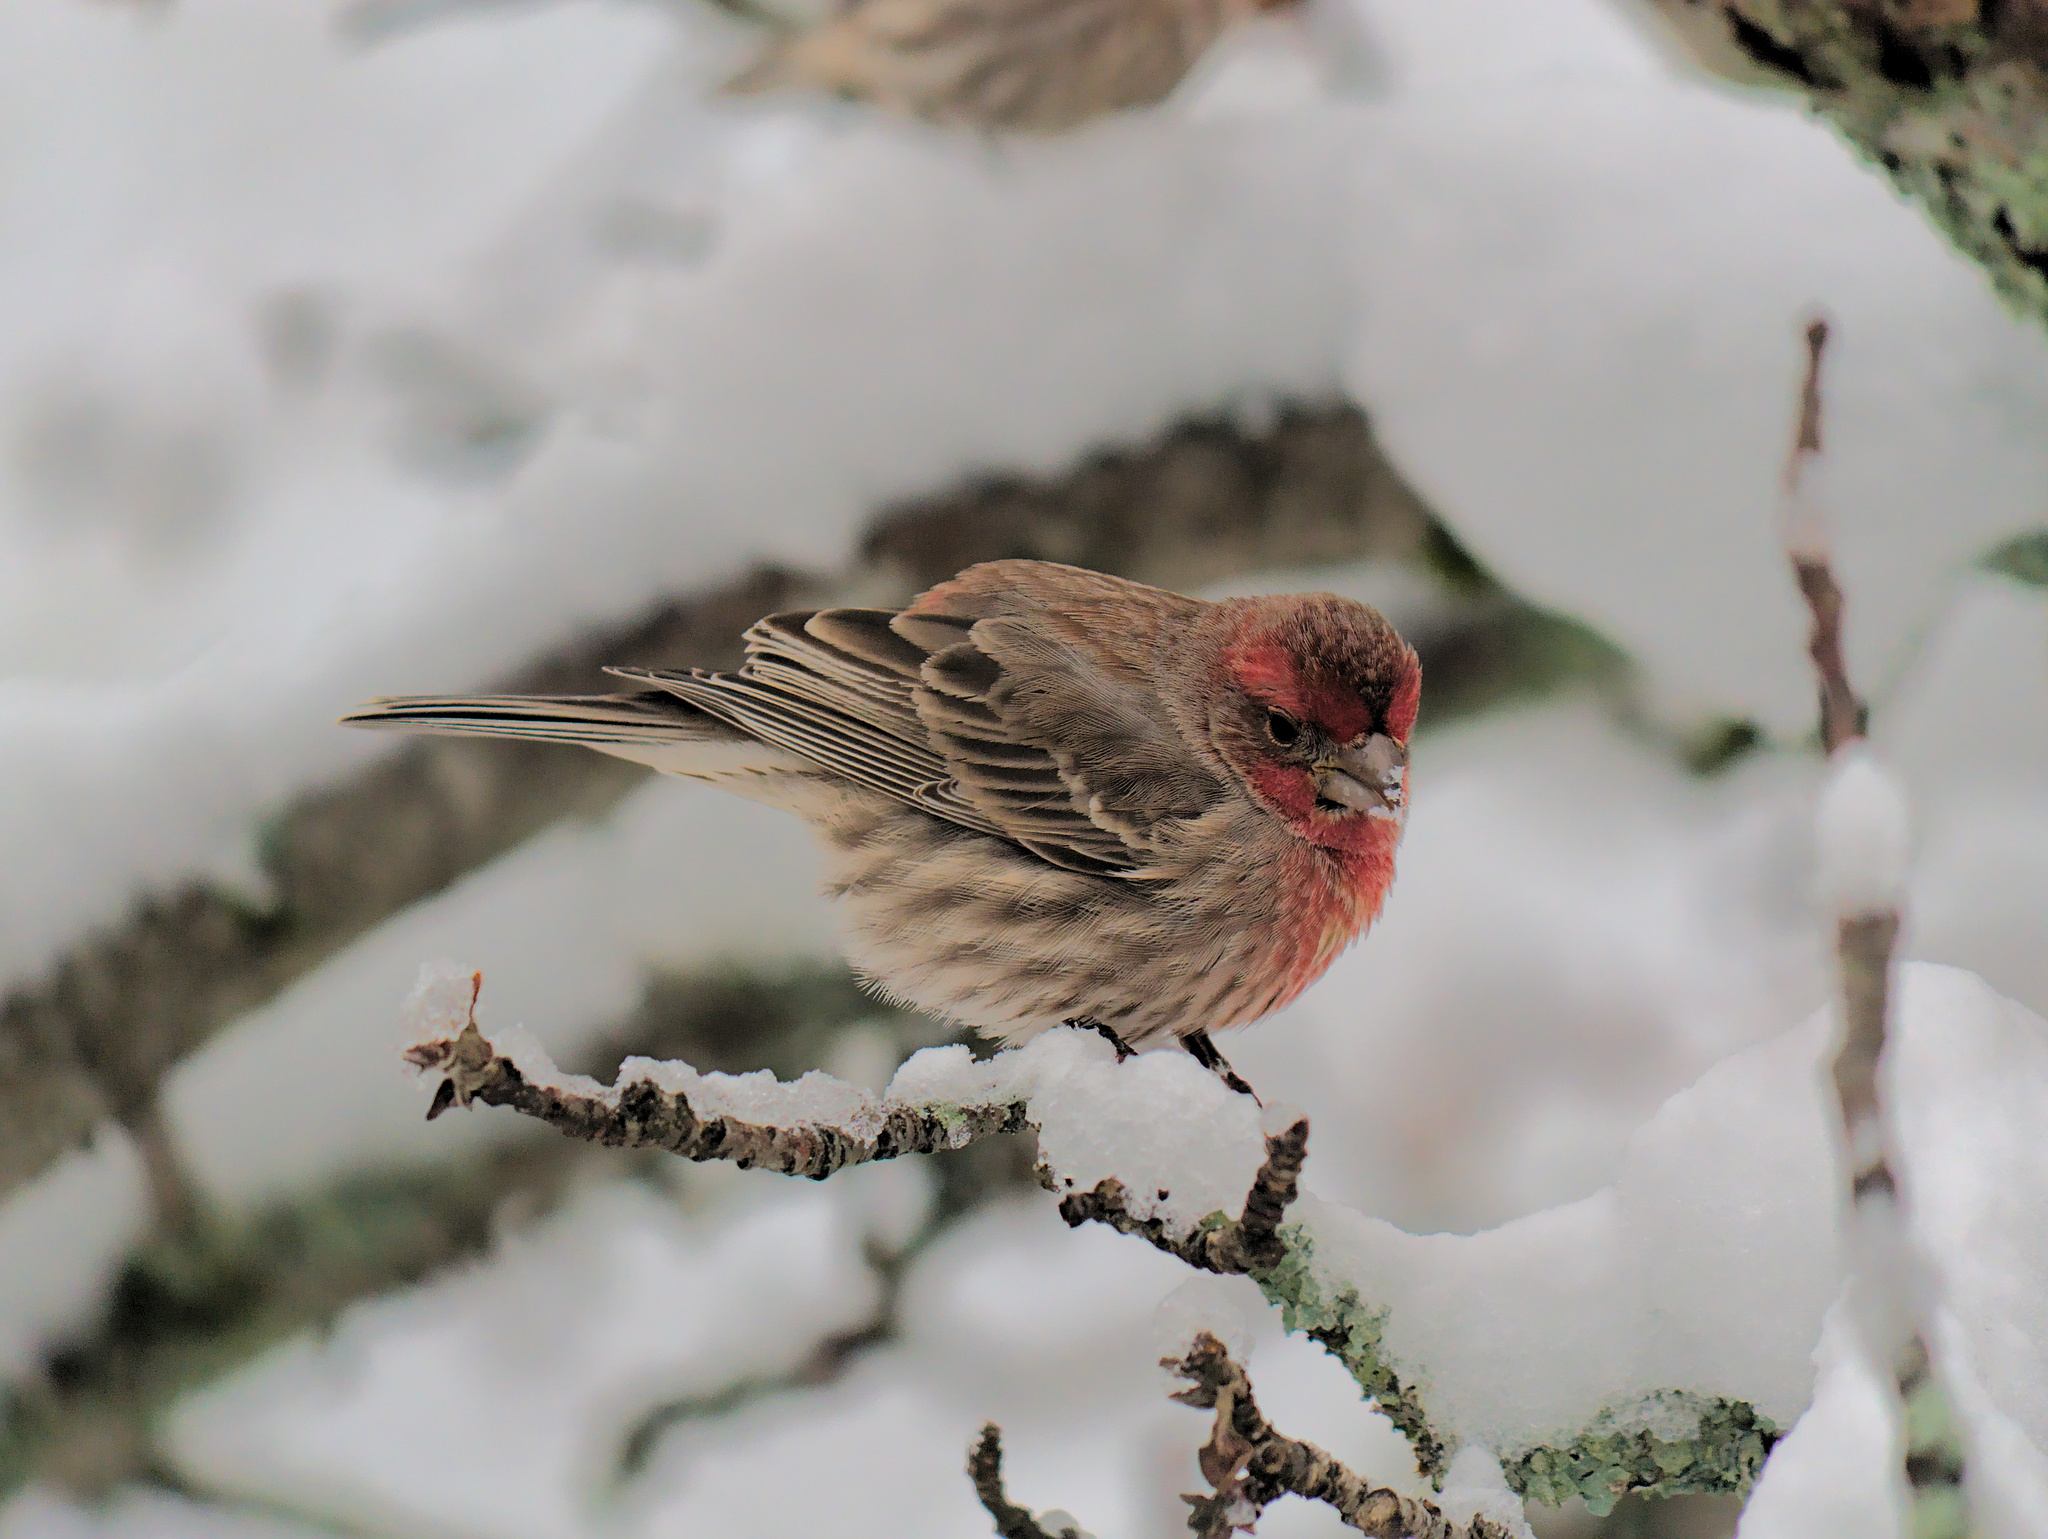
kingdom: Animalia
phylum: Chordata
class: Aves
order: Passeriformes
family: Fringillidae
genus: Haemorhous
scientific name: Haemorhous mexicanus
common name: House finch
